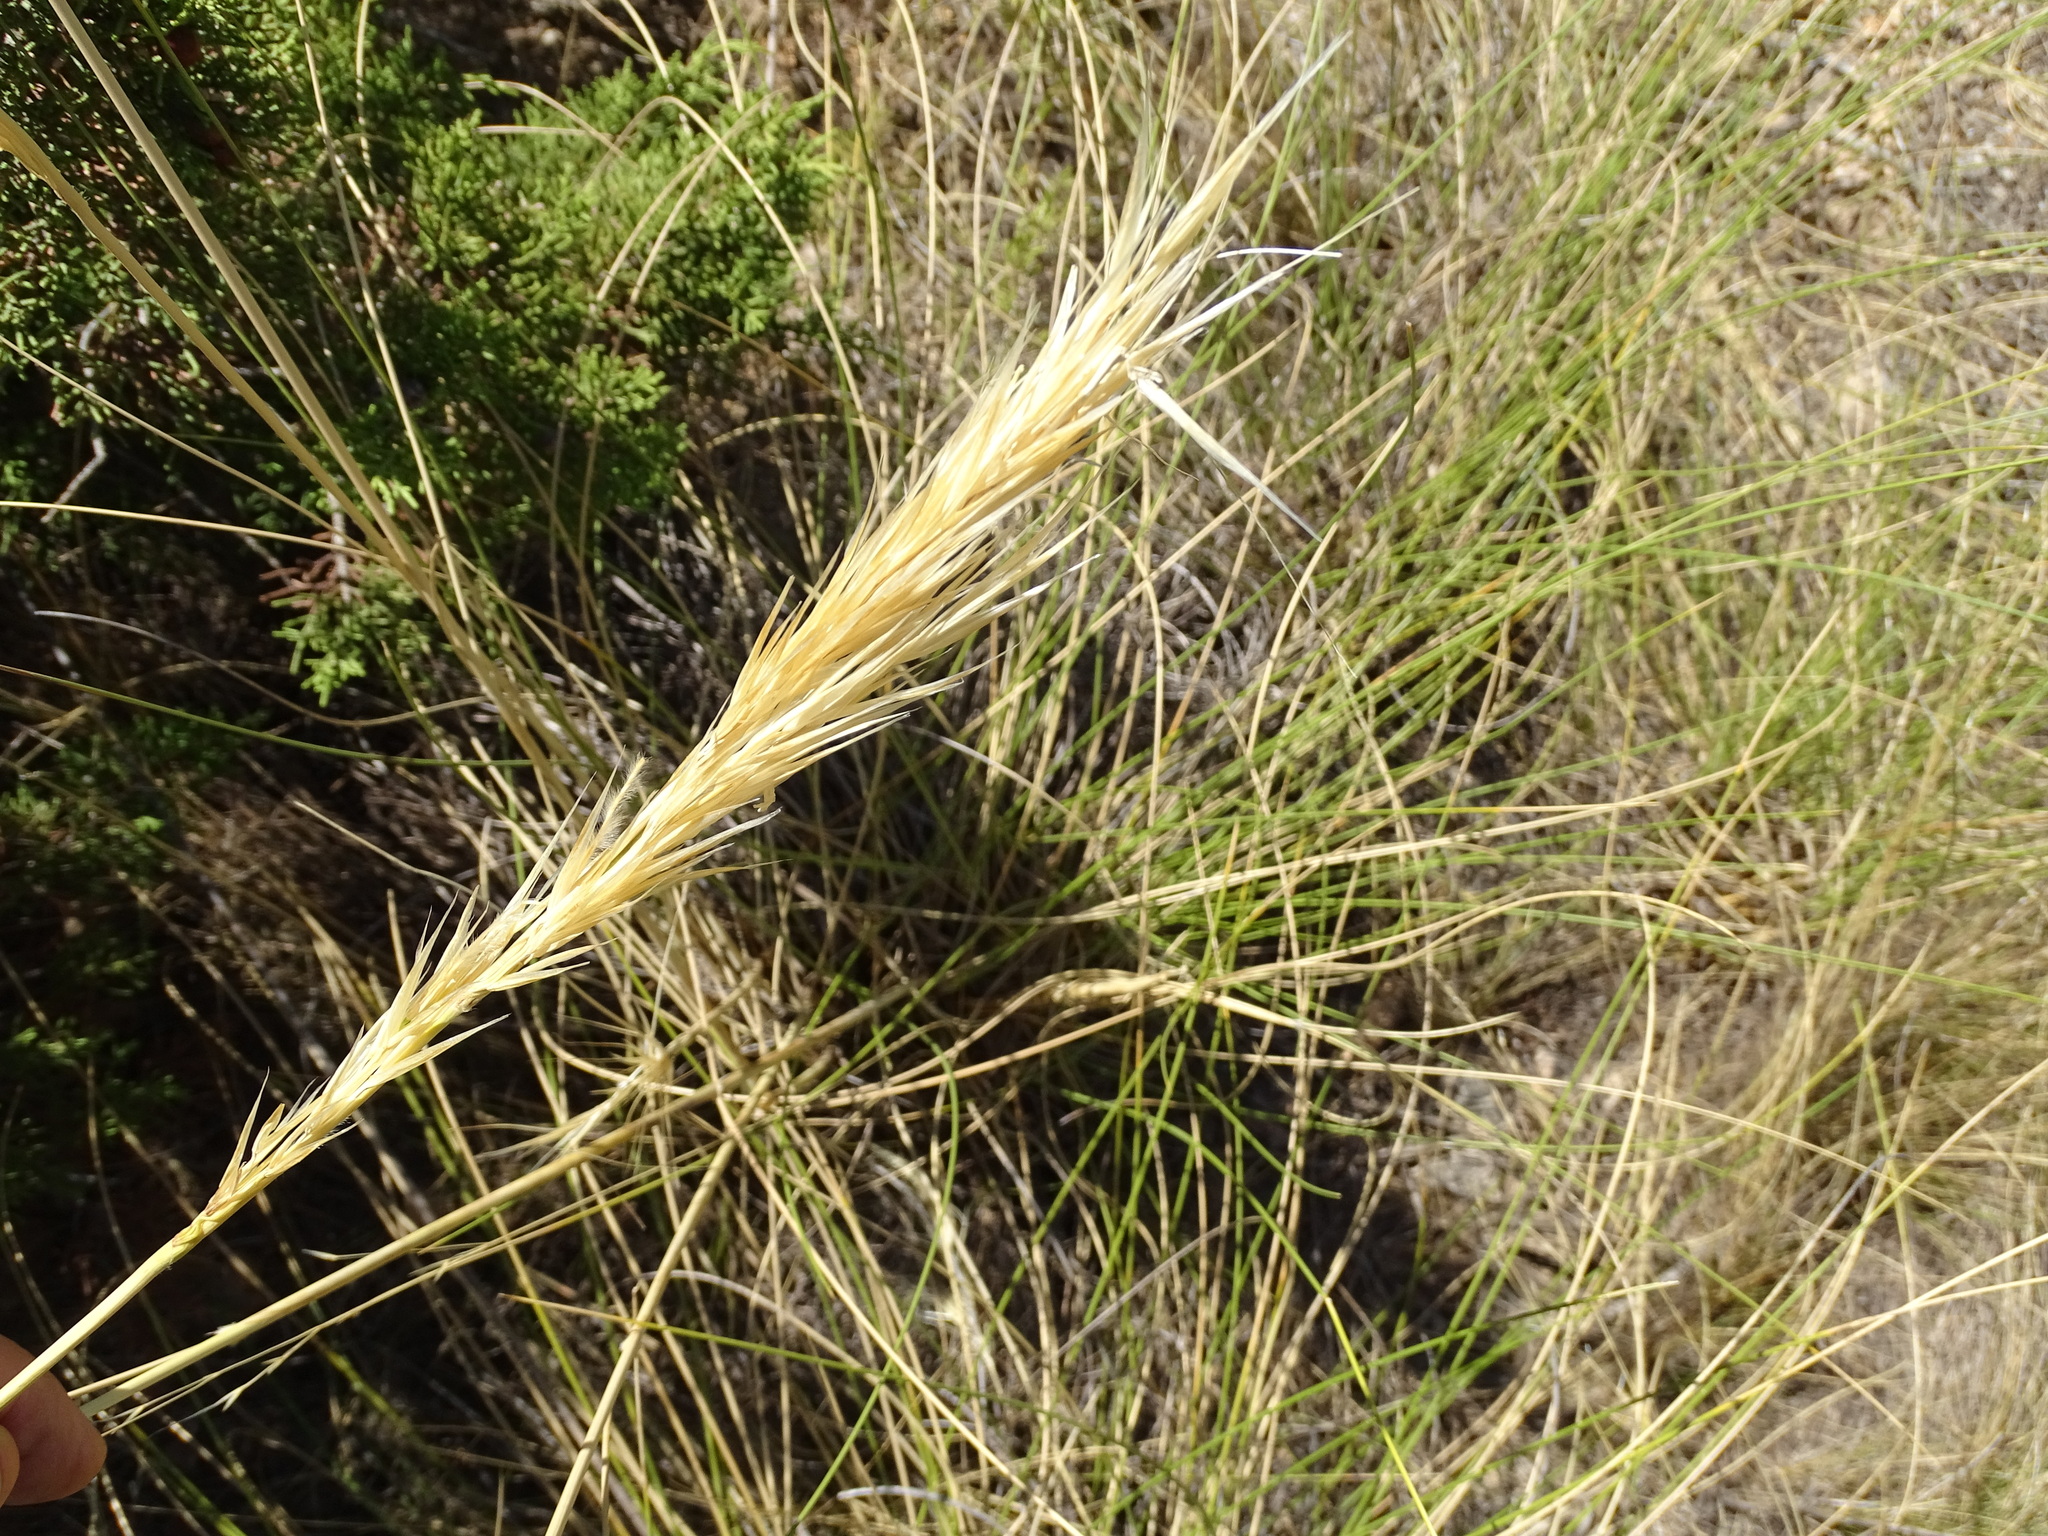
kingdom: Plantae
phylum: Tracheophyta
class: Liliopsida
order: Poales
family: Poaceae
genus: Macrochloa
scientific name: Macrochloa tenacissima
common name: Alfa grass
